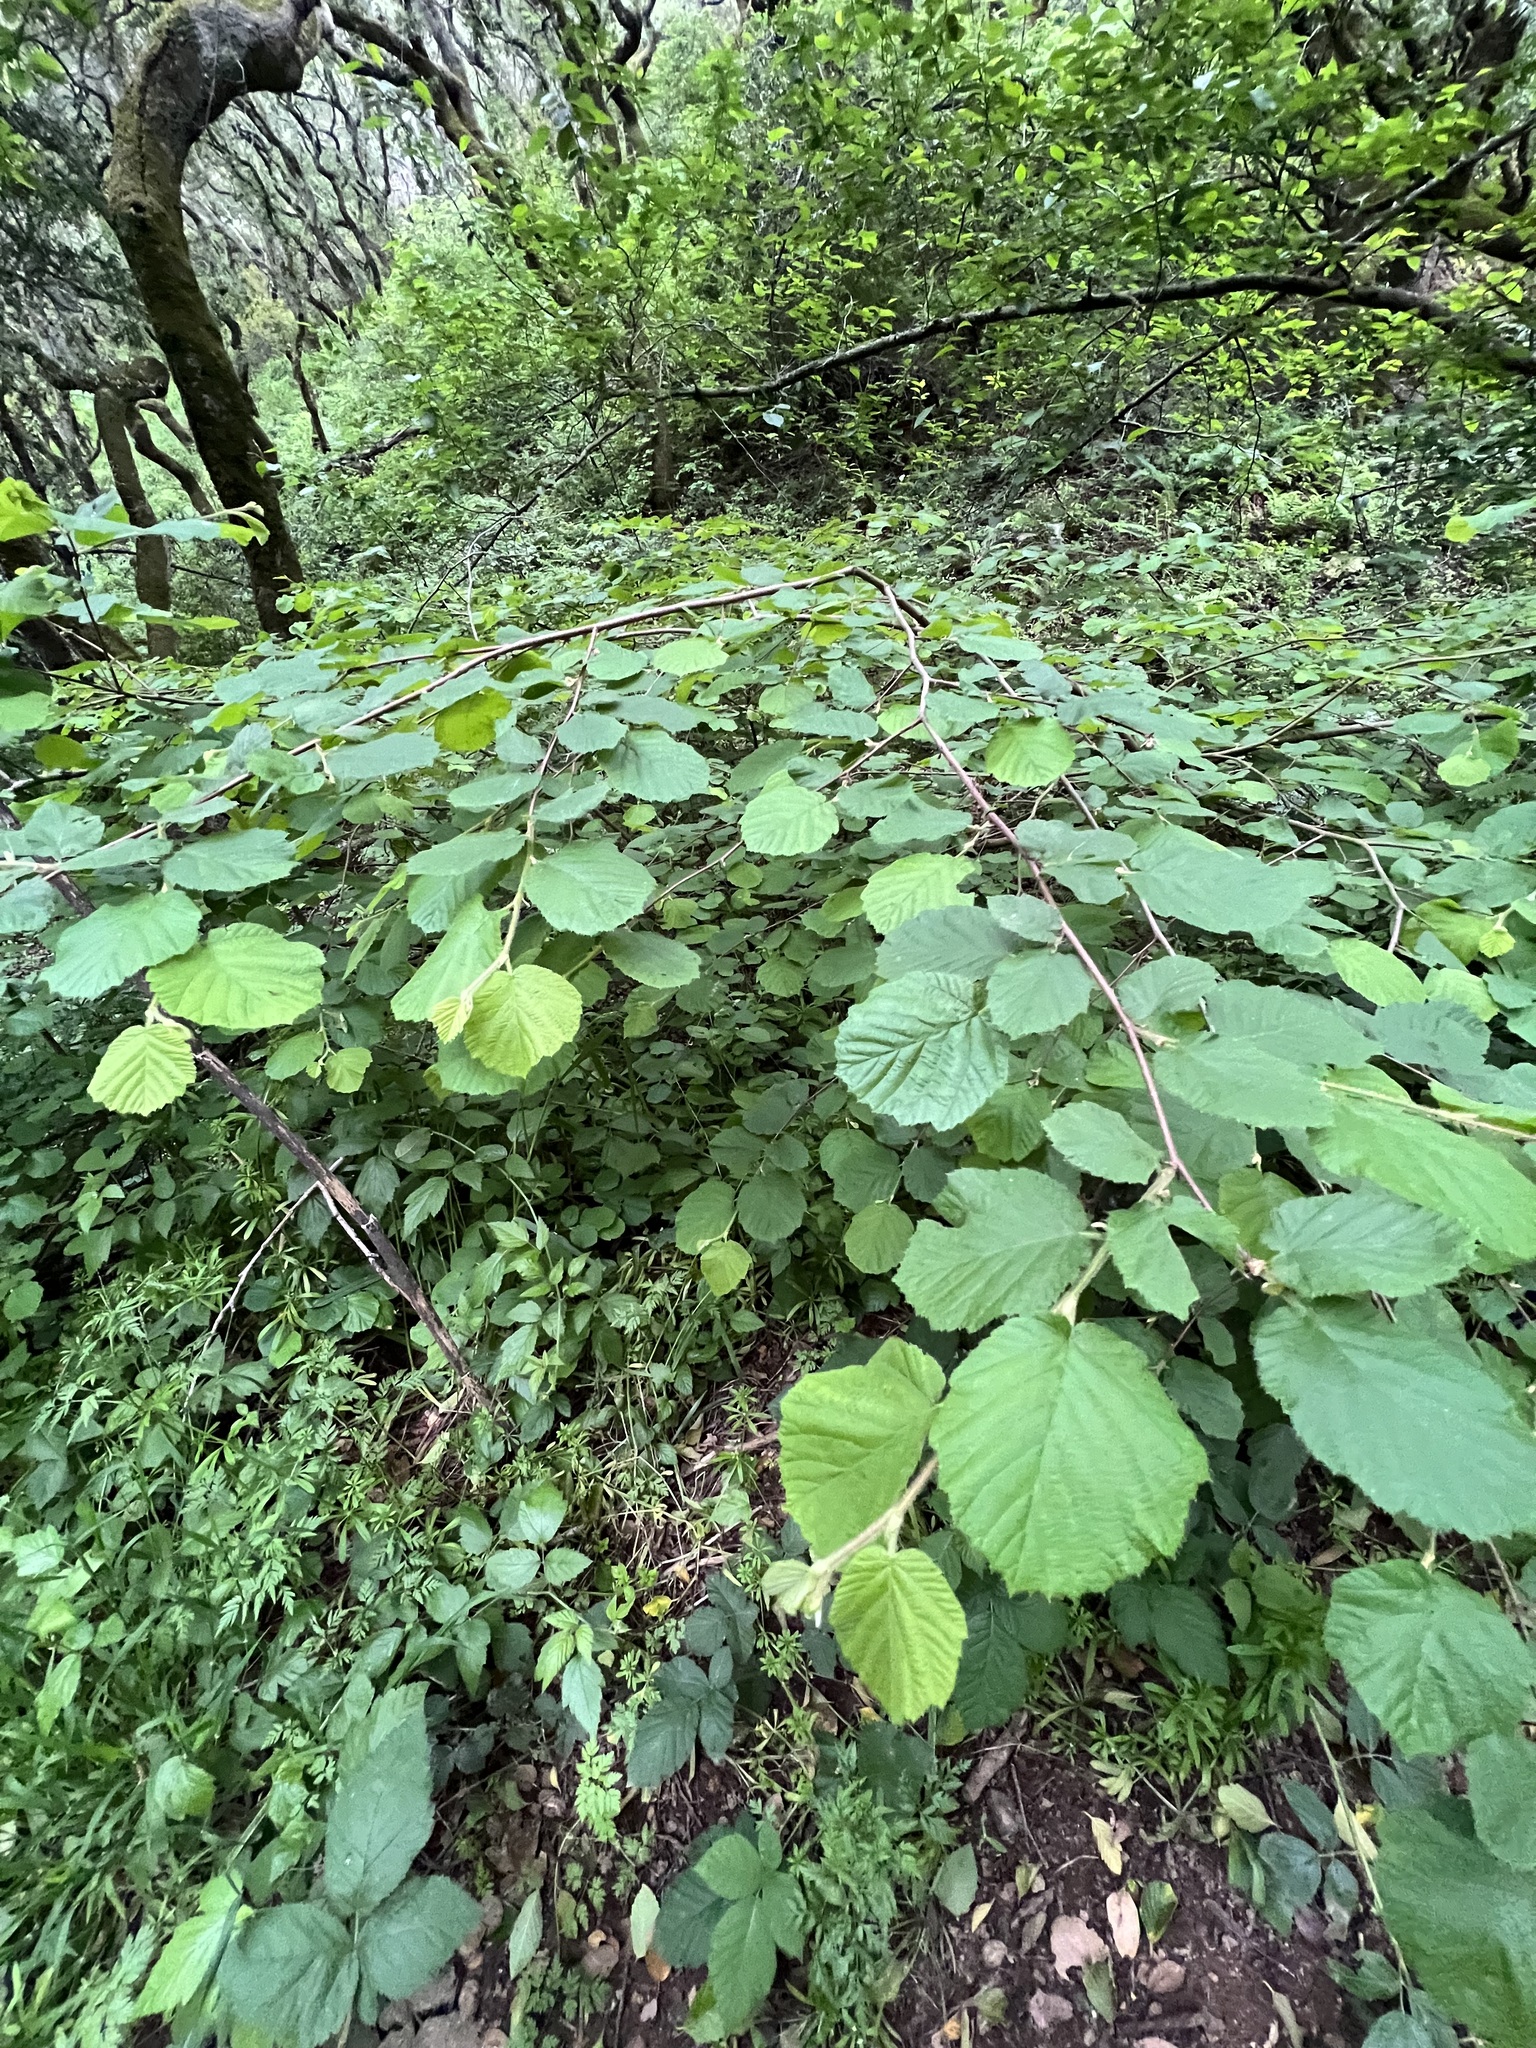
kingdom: Plantae
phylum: Tracheophyta
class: Magnoliopsida
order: Fagales
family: Betulaceae
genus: Corylus
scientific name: Corylus cornuta
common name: Beaked hazel
